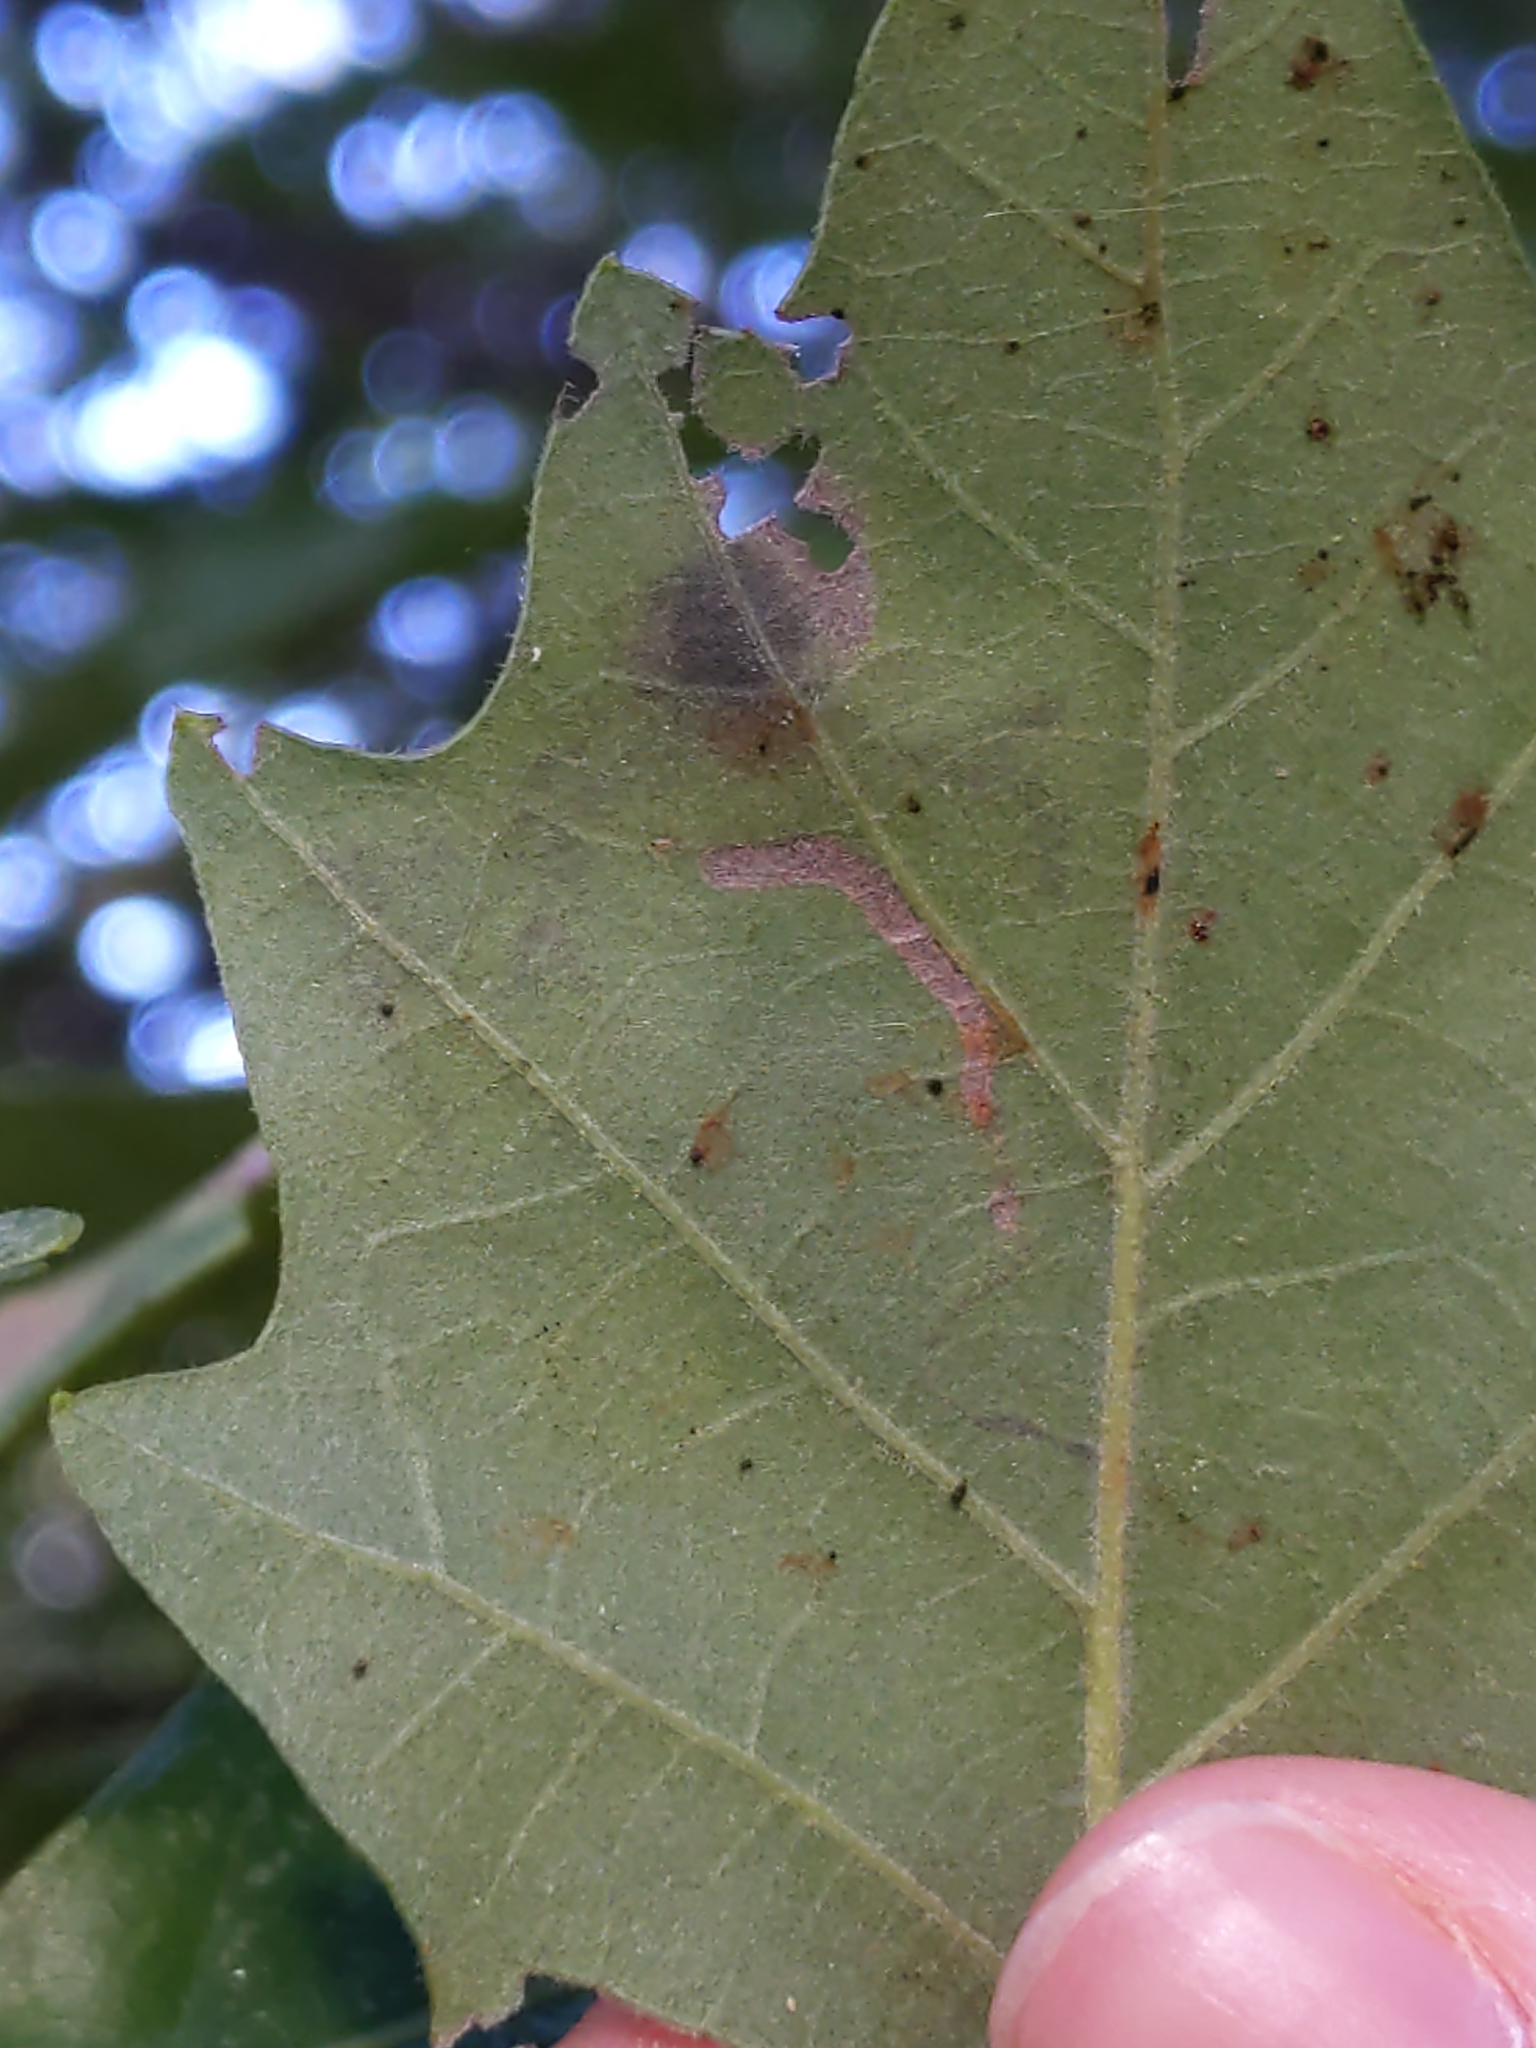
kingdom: Animalia
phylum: Arthropoda
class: Insecta
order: Lepidoptera
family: Nepticulidae
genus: Stigmella
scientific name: Stigmella
